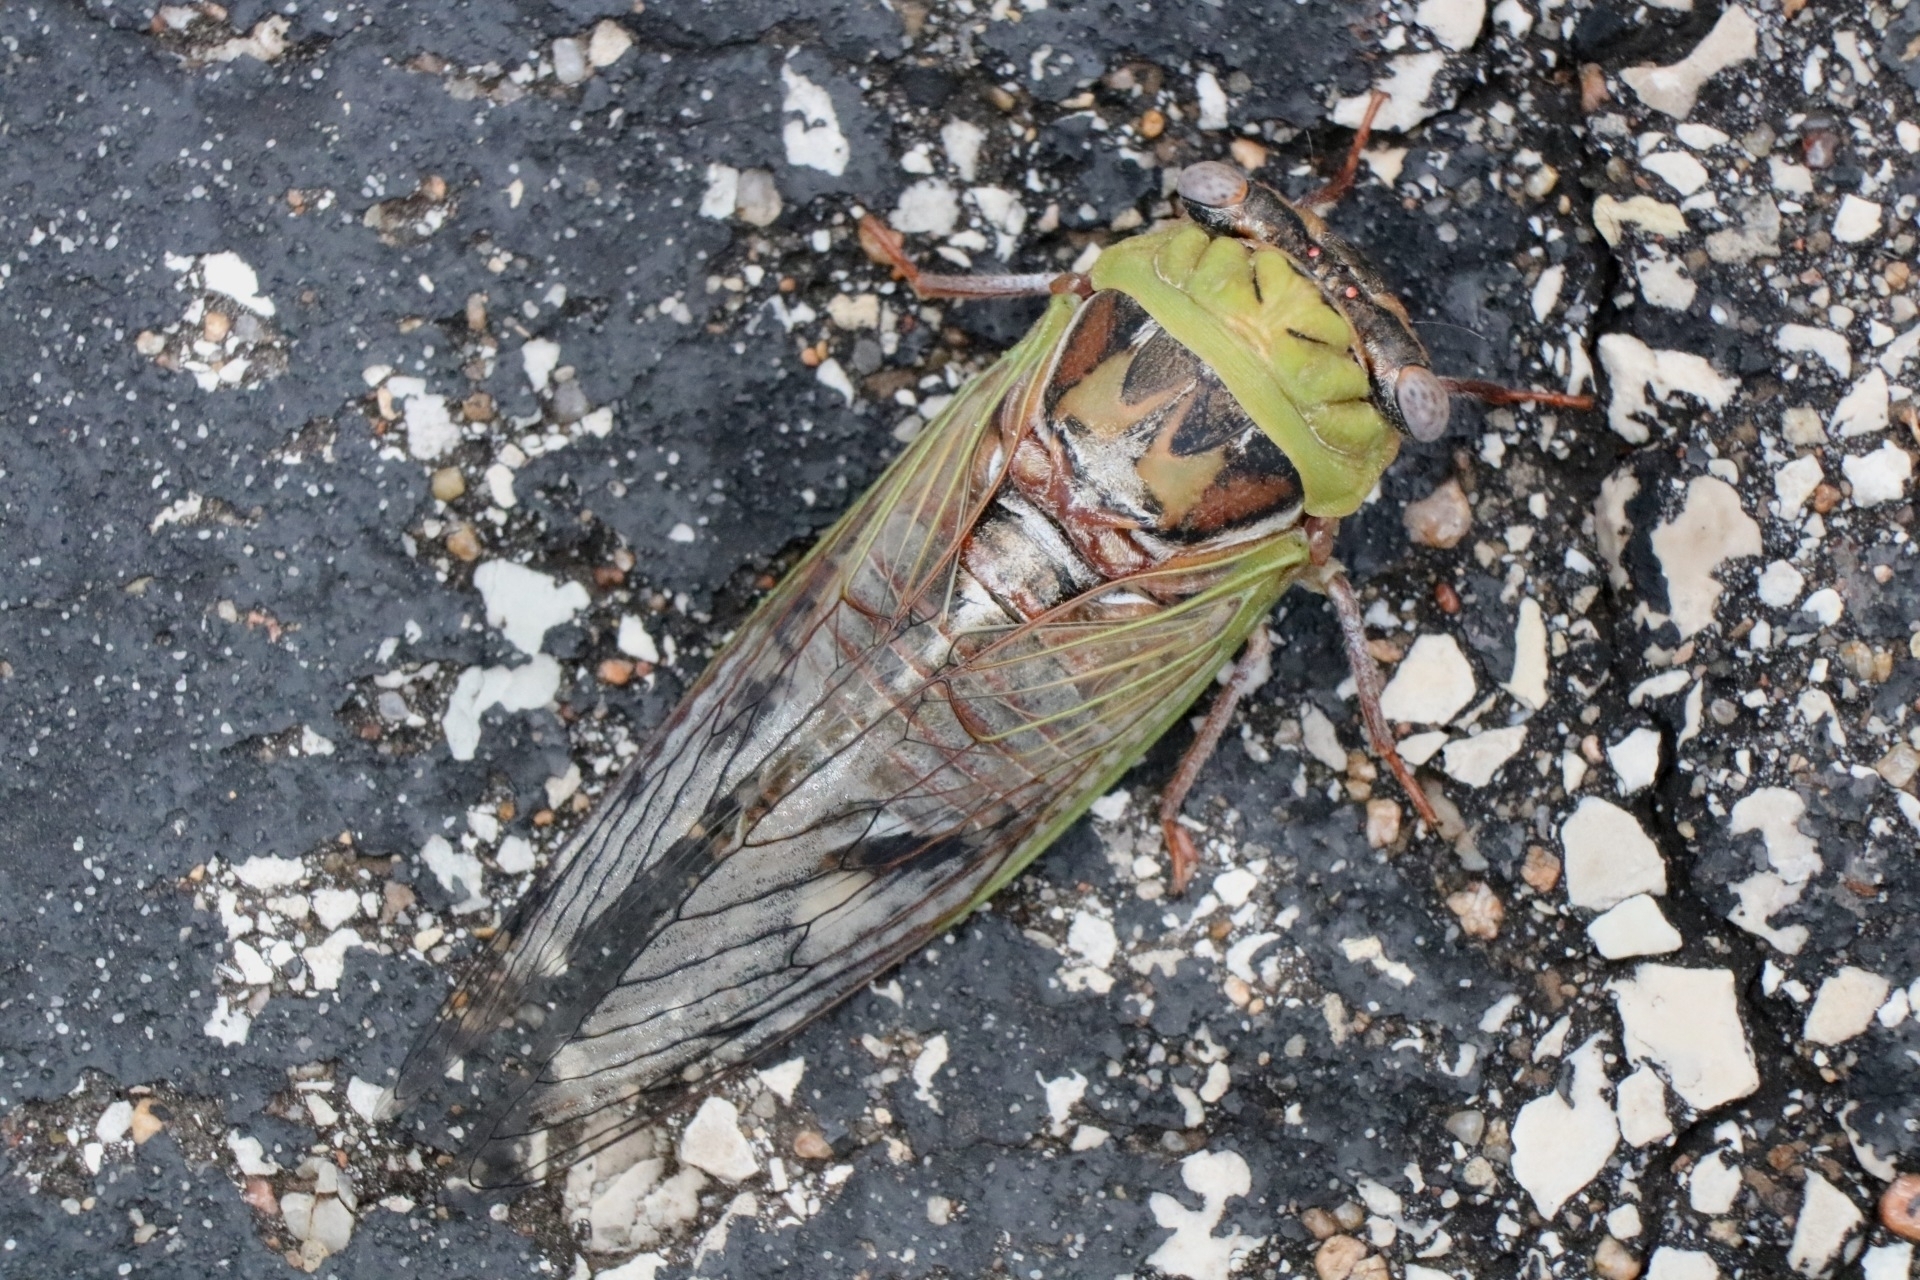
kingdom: Animalia
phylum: Arthropoda
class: Insecta
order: Hemiptera
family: Cicadidae
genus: Megatibicen
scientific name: Megatibicen pronotalis
